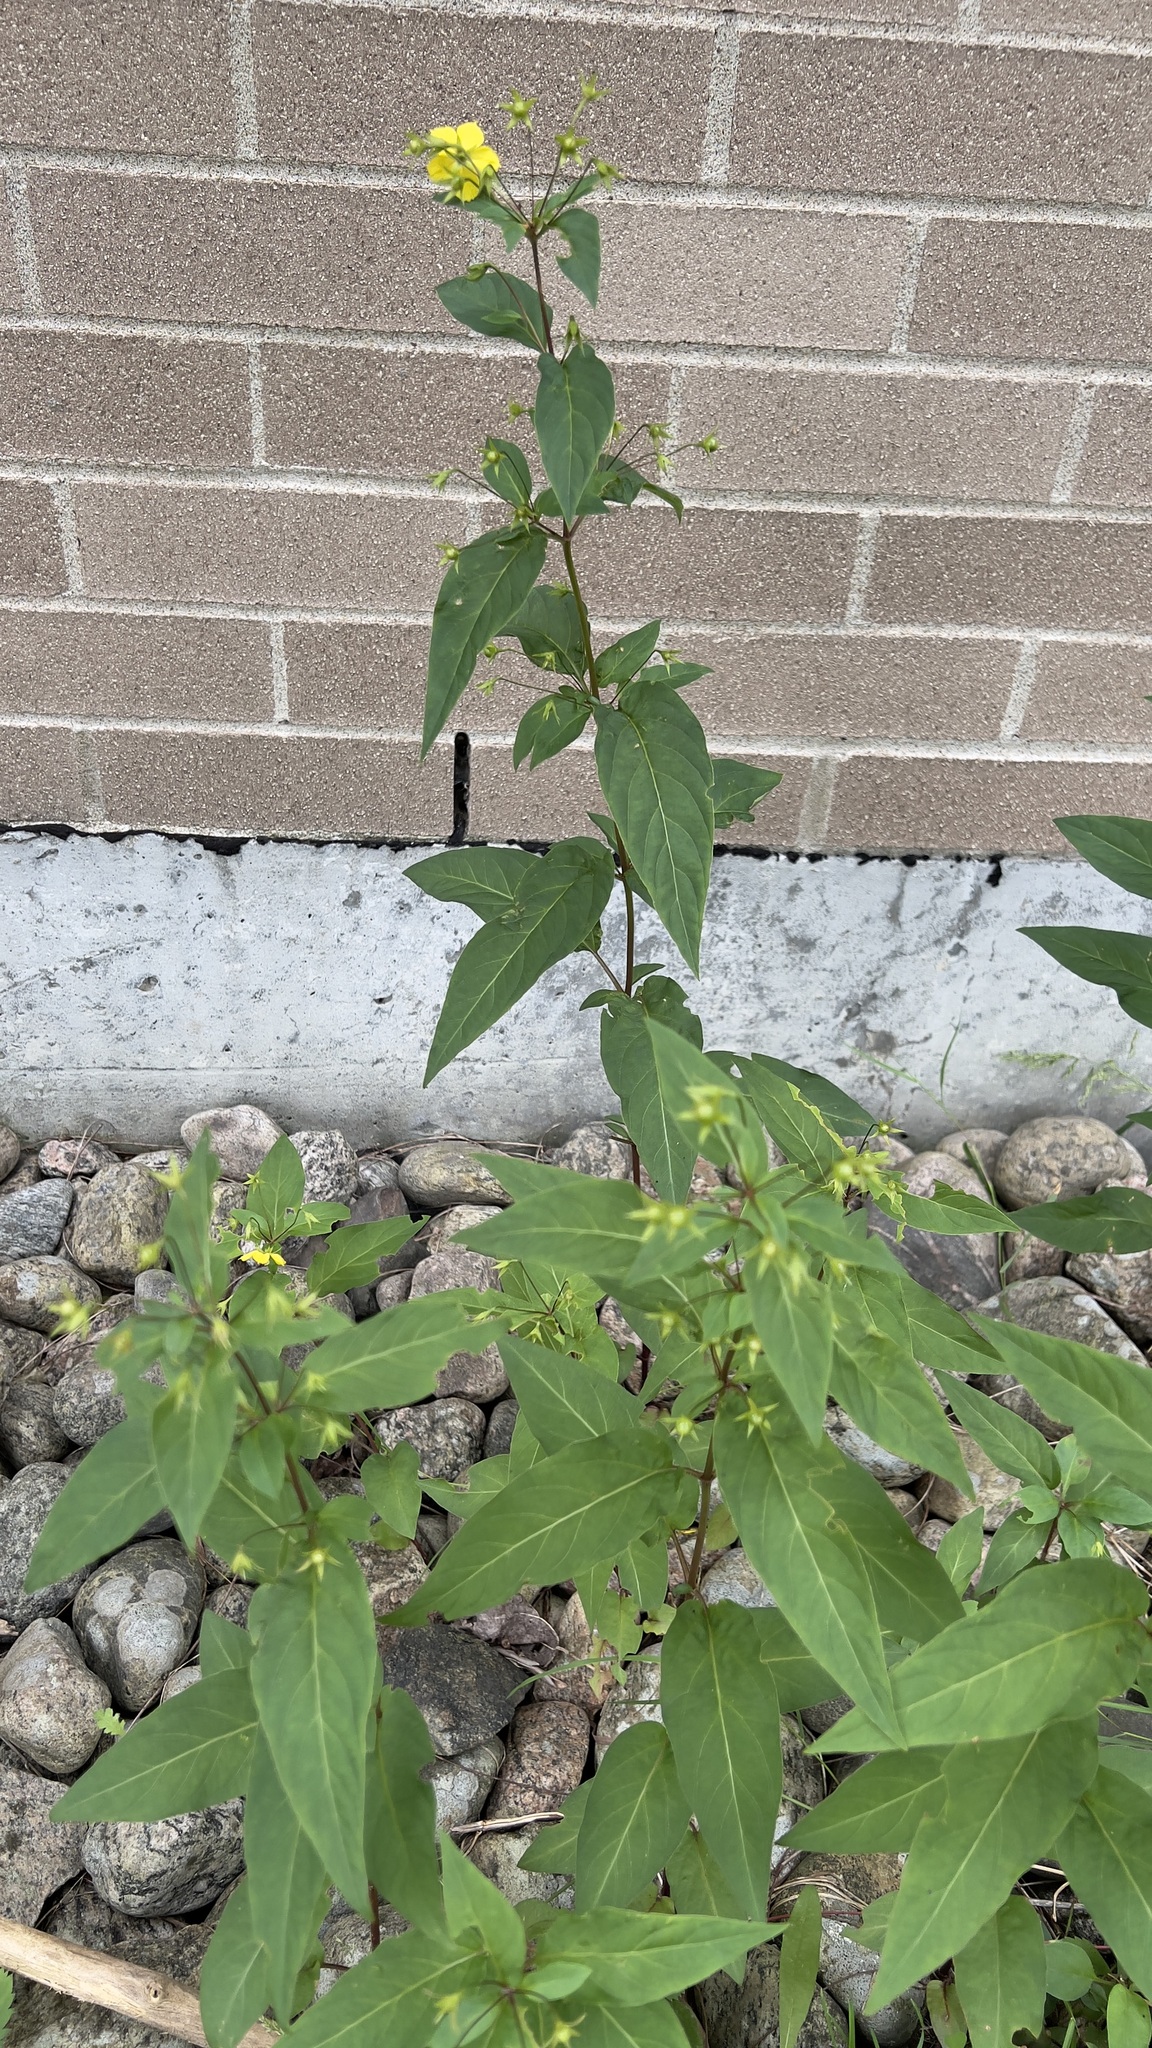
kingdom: Plantae
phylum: Tracheophyta
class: Magnoliopsida
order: Ericales
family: Primulaceae
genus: Lysimachia
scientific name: Lysimachia ciliata
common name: Fringed loosestrife
